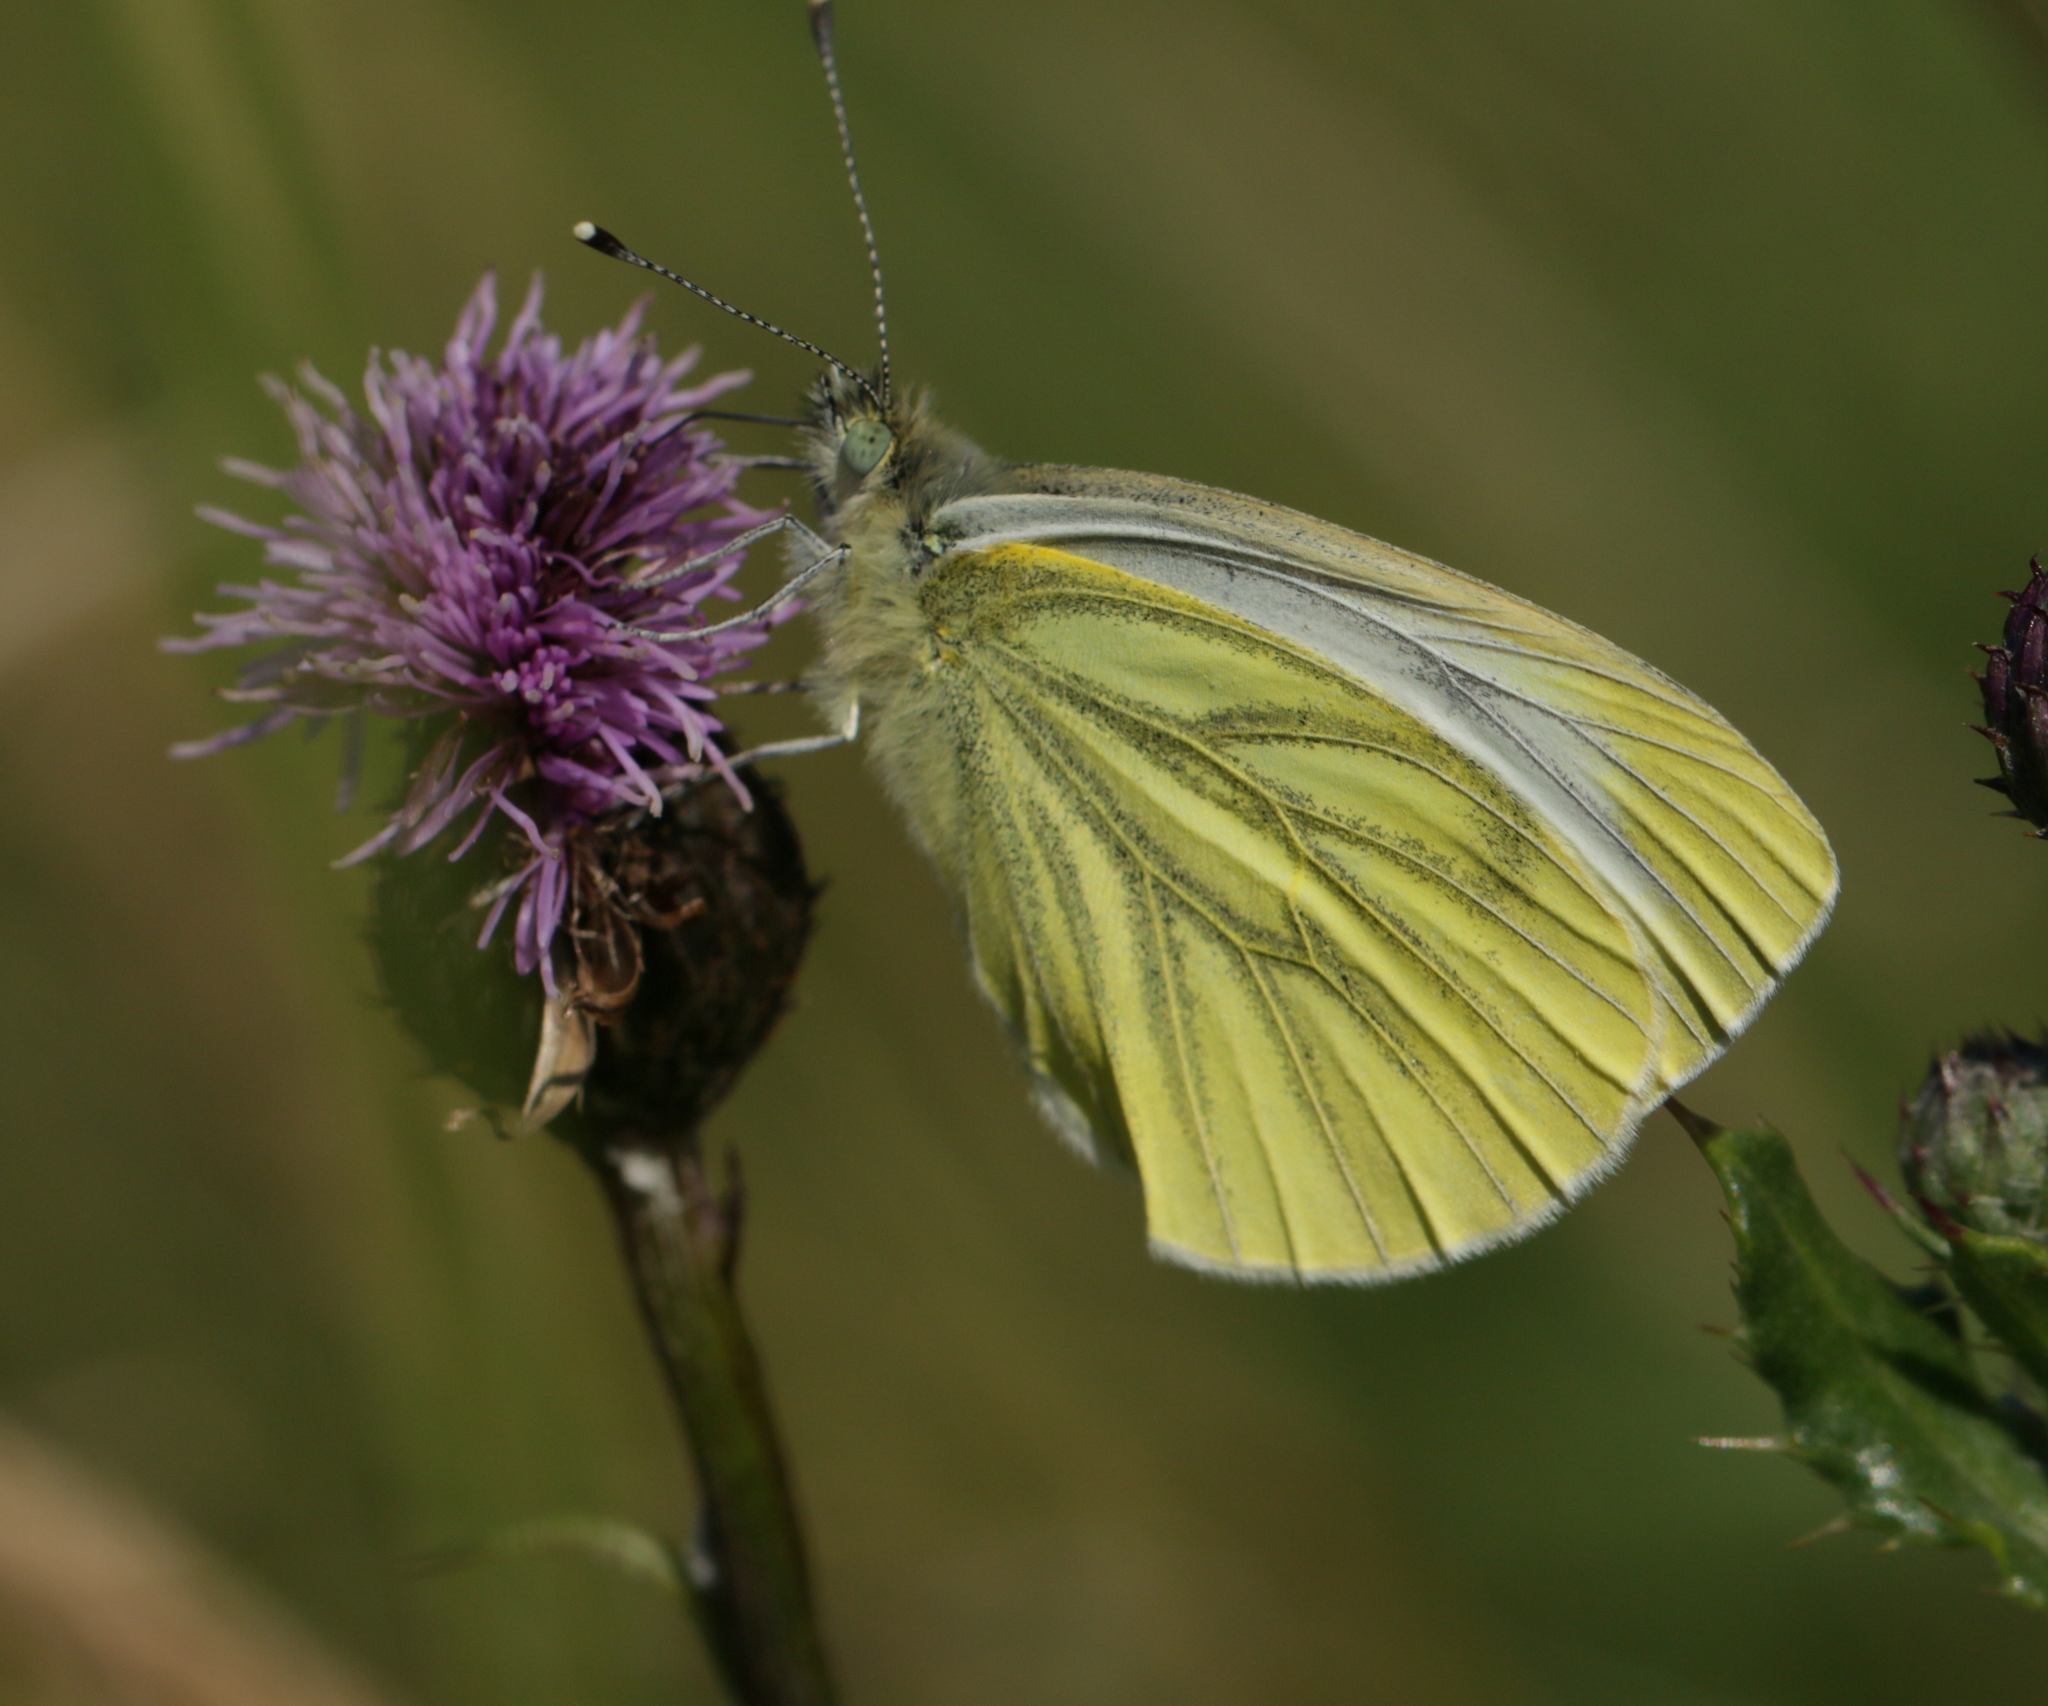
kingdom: Animalia
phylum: Arthropoda
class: Insecta
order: Lepidoptera
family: Pieridae
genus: Pieris
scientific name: Pieris napi
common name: Green-veined white
